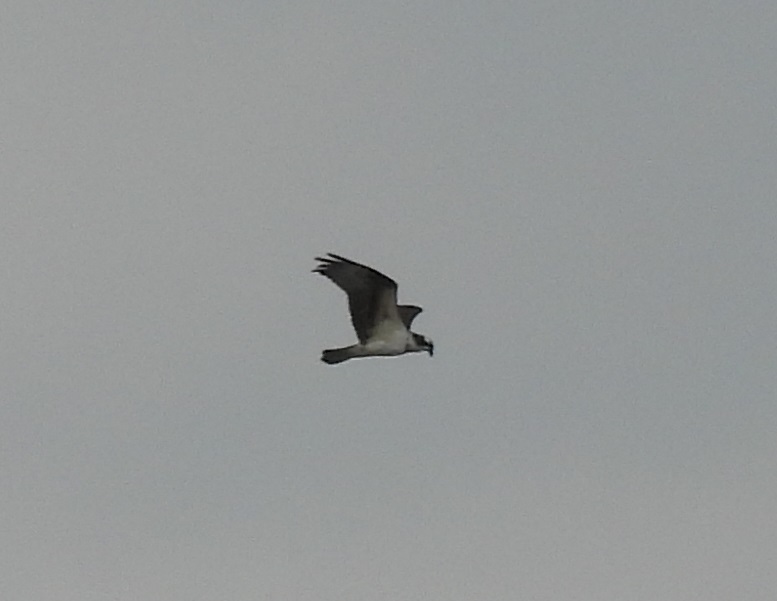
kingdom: Animalia
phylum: Chordata
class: Aves
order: Accipitriformes
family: Pandionidae
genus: Pandion
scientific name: Pandion haliaetus
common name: Osprey
